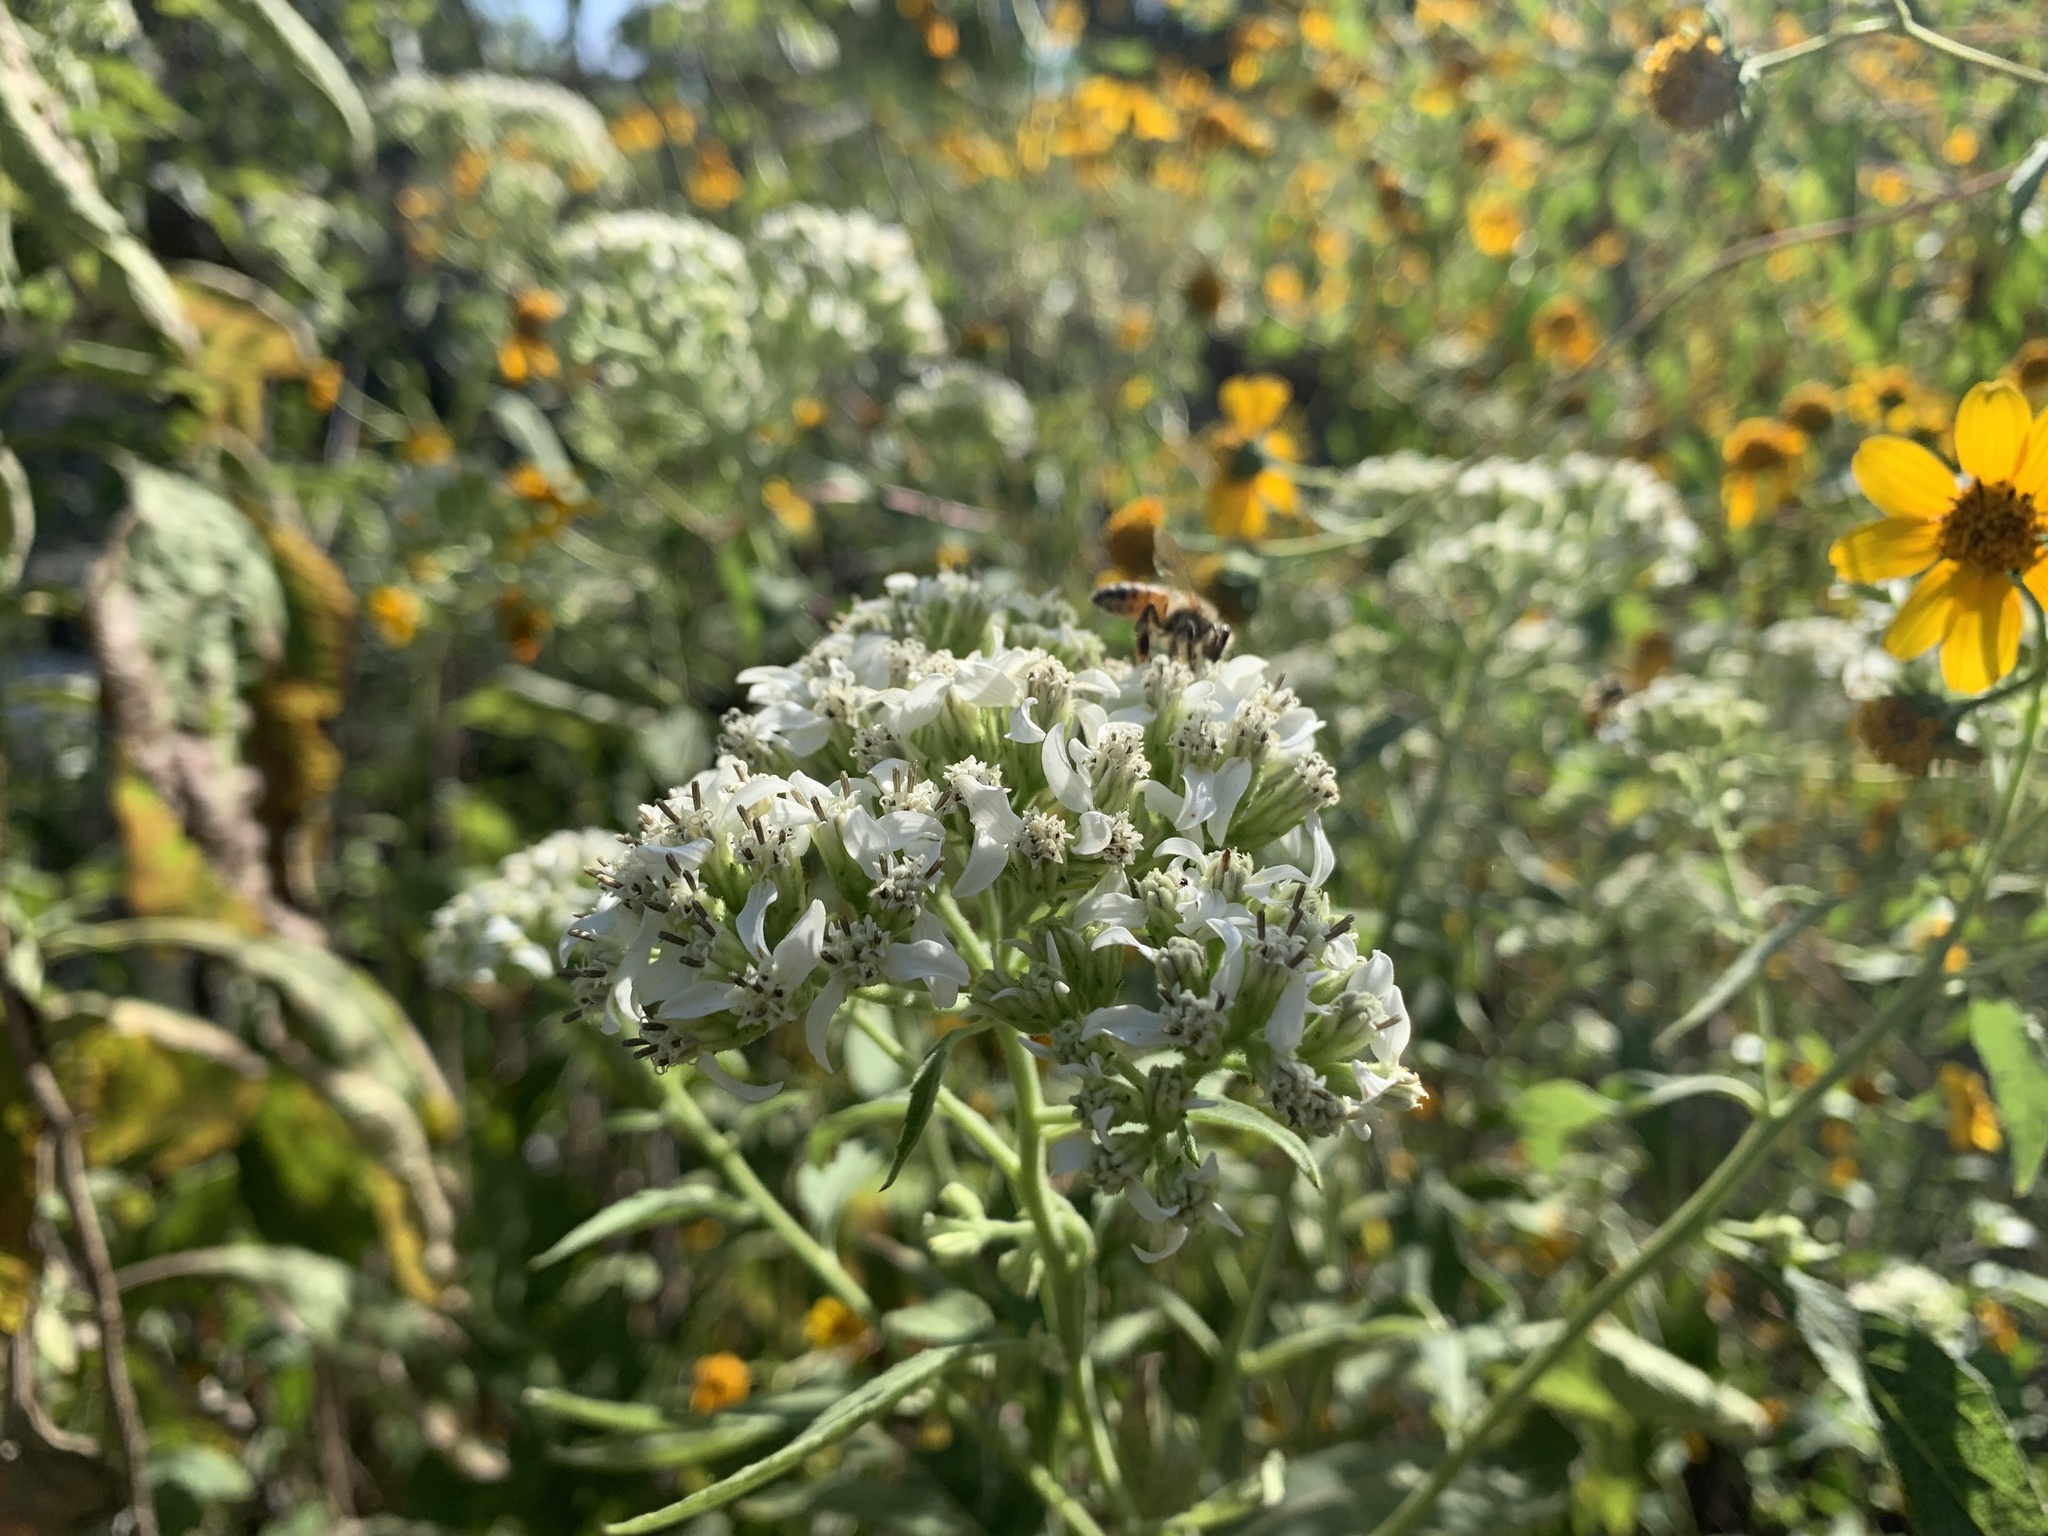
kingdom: Plantae
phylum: Tracheophyta
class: Magnoliopsida
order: Asterales
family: Asteraceae
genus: Verbesina
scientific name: Verbesina virginica
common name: Frostweed
